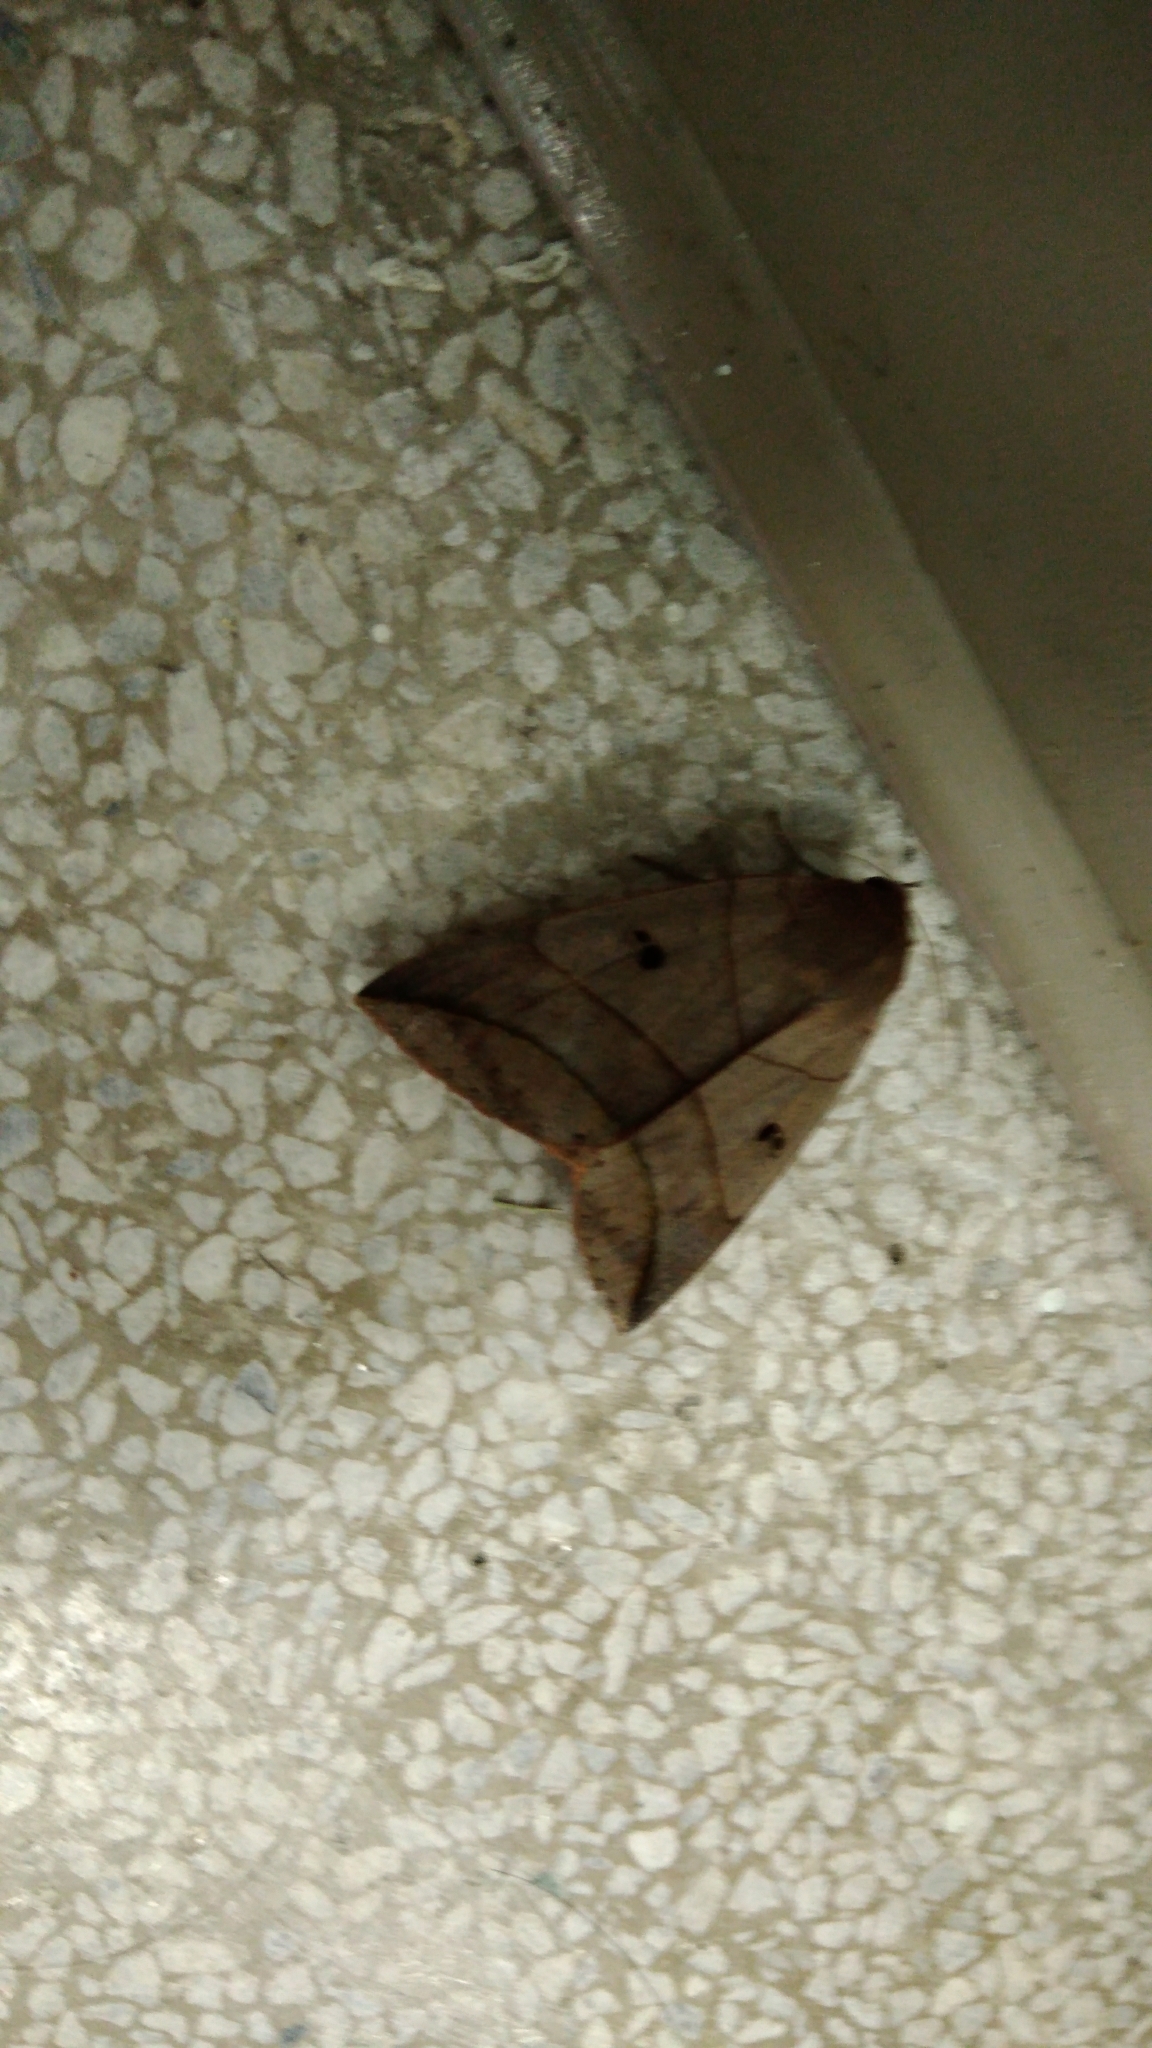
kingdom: Animalia
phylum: Arthropoda
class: Insecta
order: Lepidoptera
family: Erebidae
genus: Thyas
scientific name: Thyas juno
